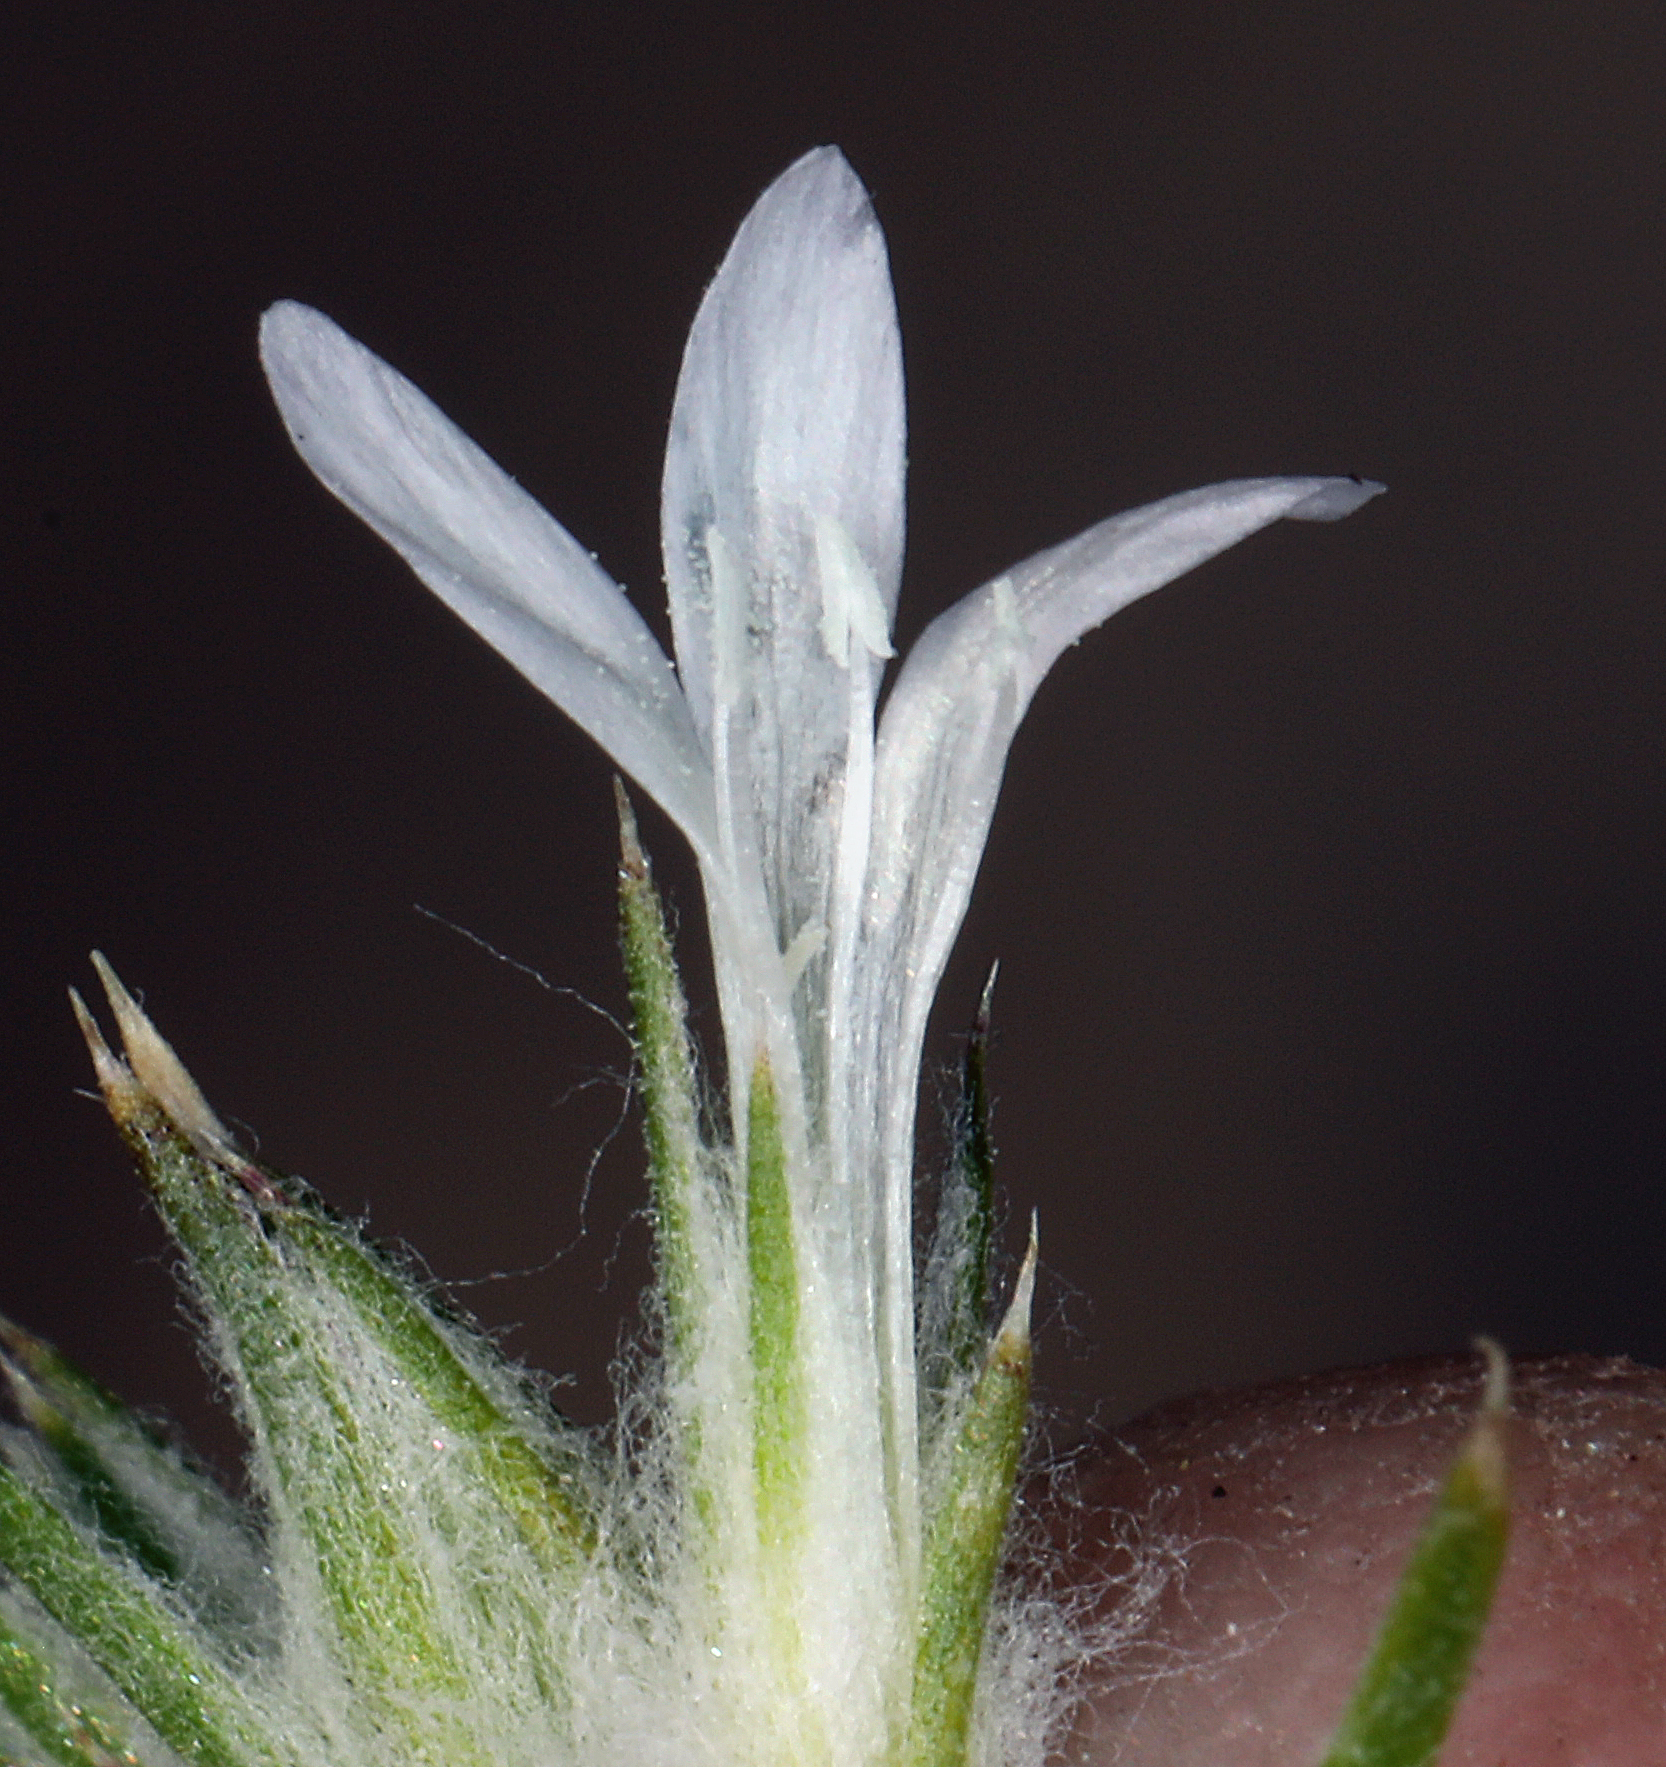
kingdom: Plantae
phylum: Tracheophyta
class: Magnoliopsida
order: Ericales
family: Polemoniaceae
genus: Eriastrum
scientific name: Eriastrum sparsiflorum
